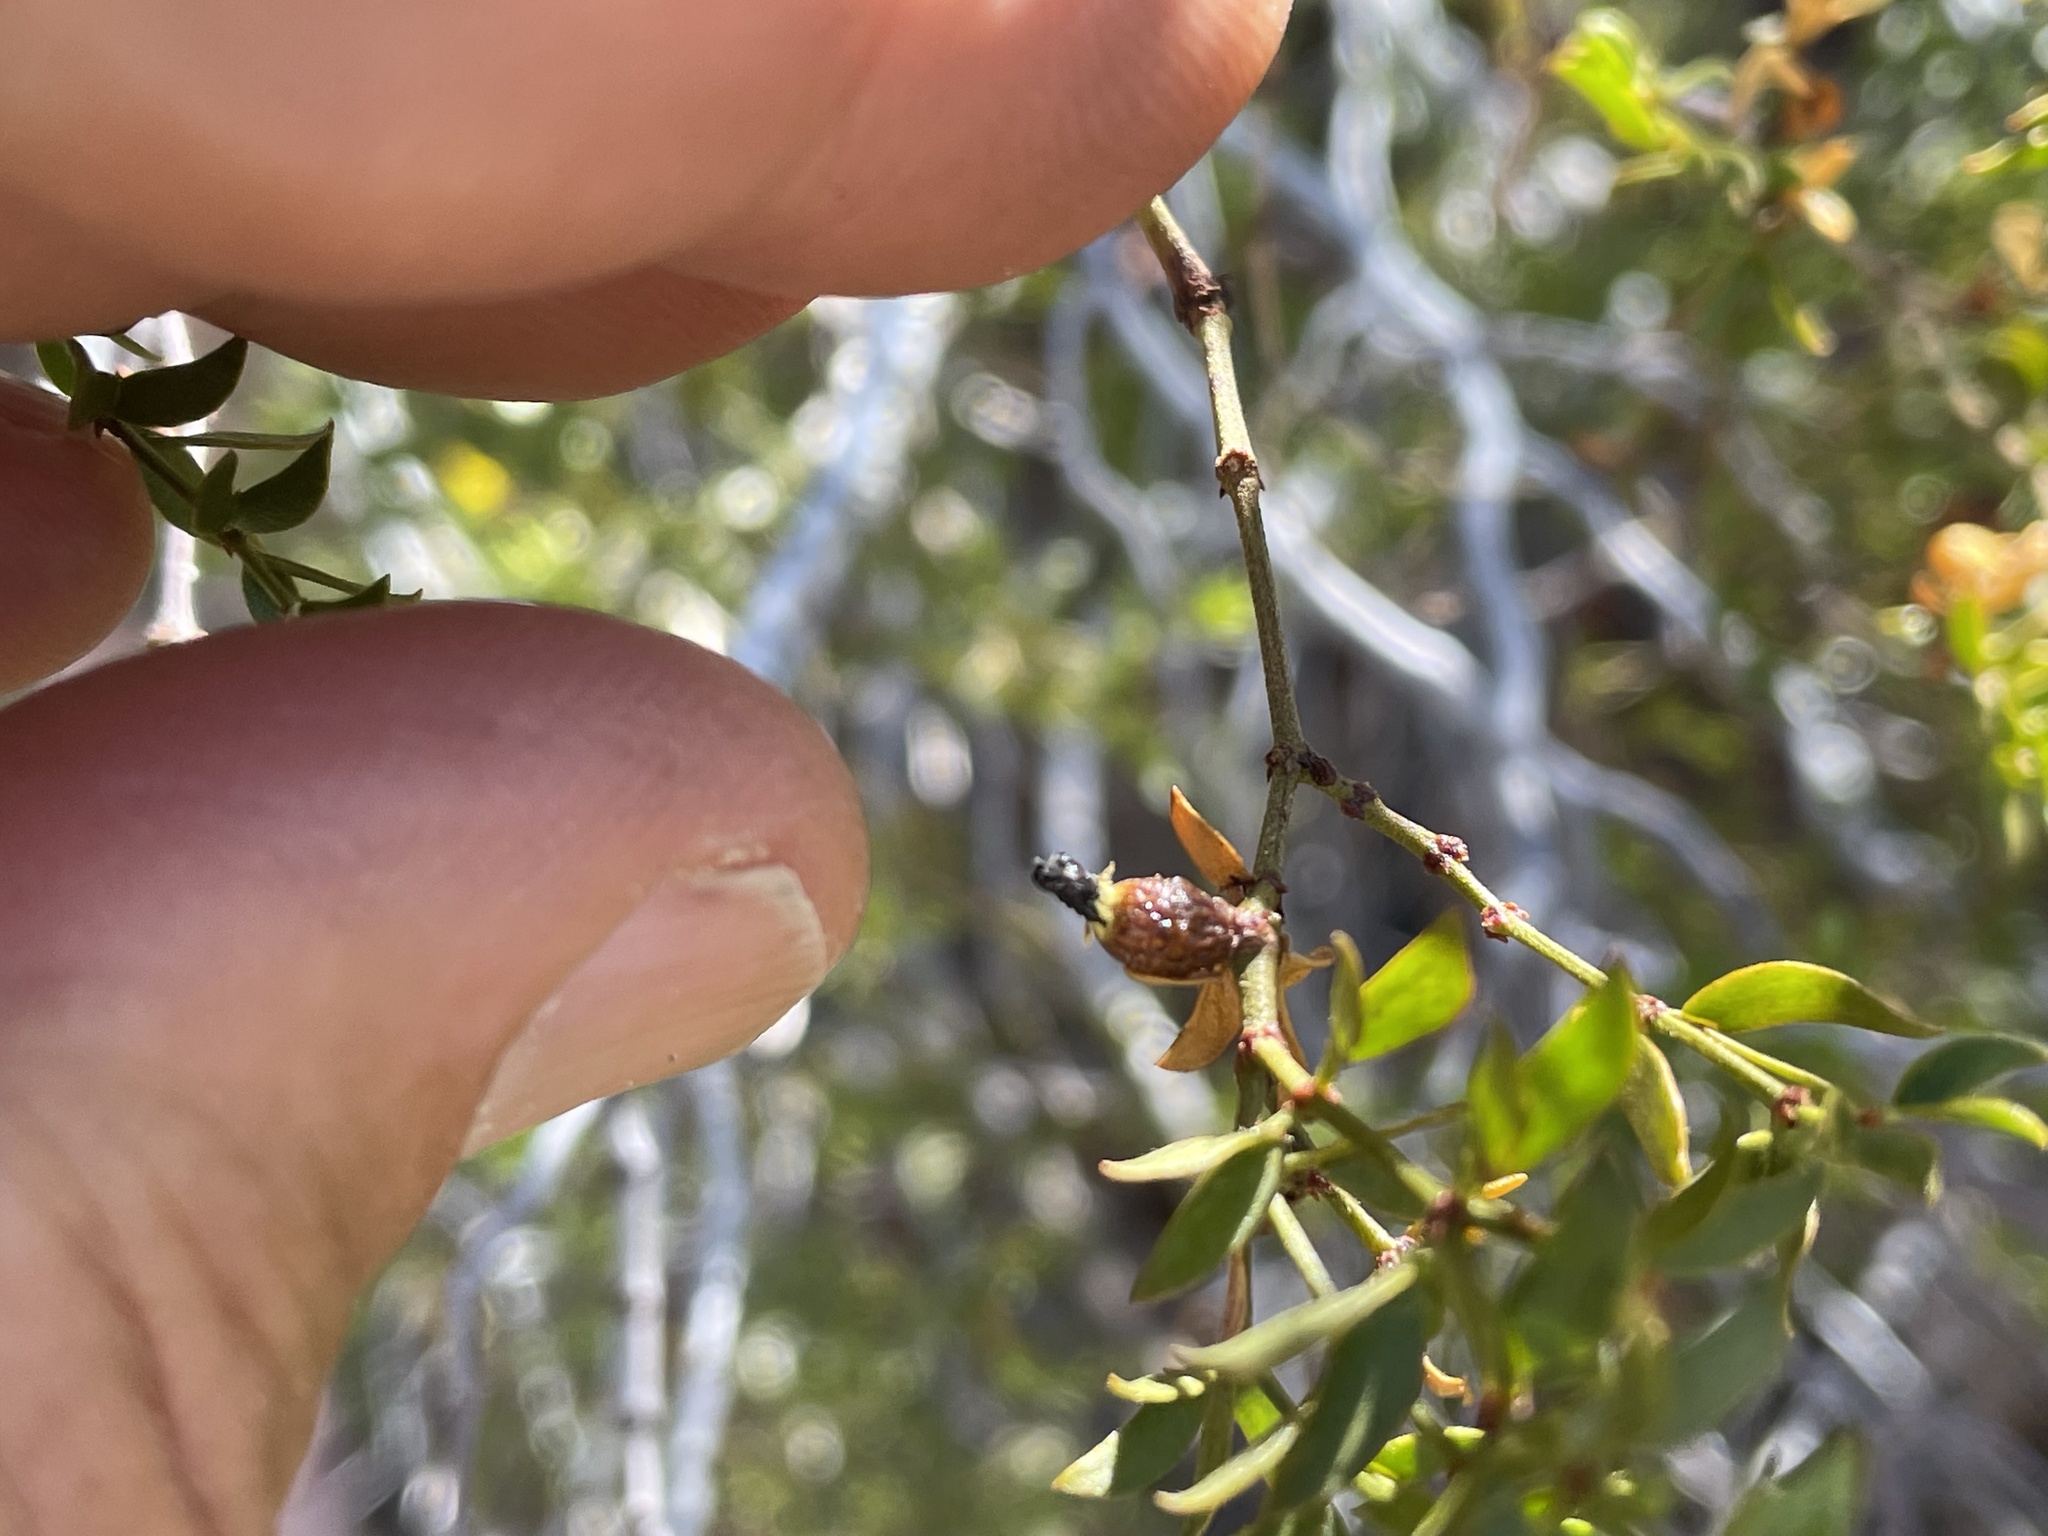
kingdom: Animalia
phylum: Arthropoda
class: Insecta
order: Diptera
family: Cecidomyiidae
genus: Asphondylia
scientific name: Asphondylia resinosa
